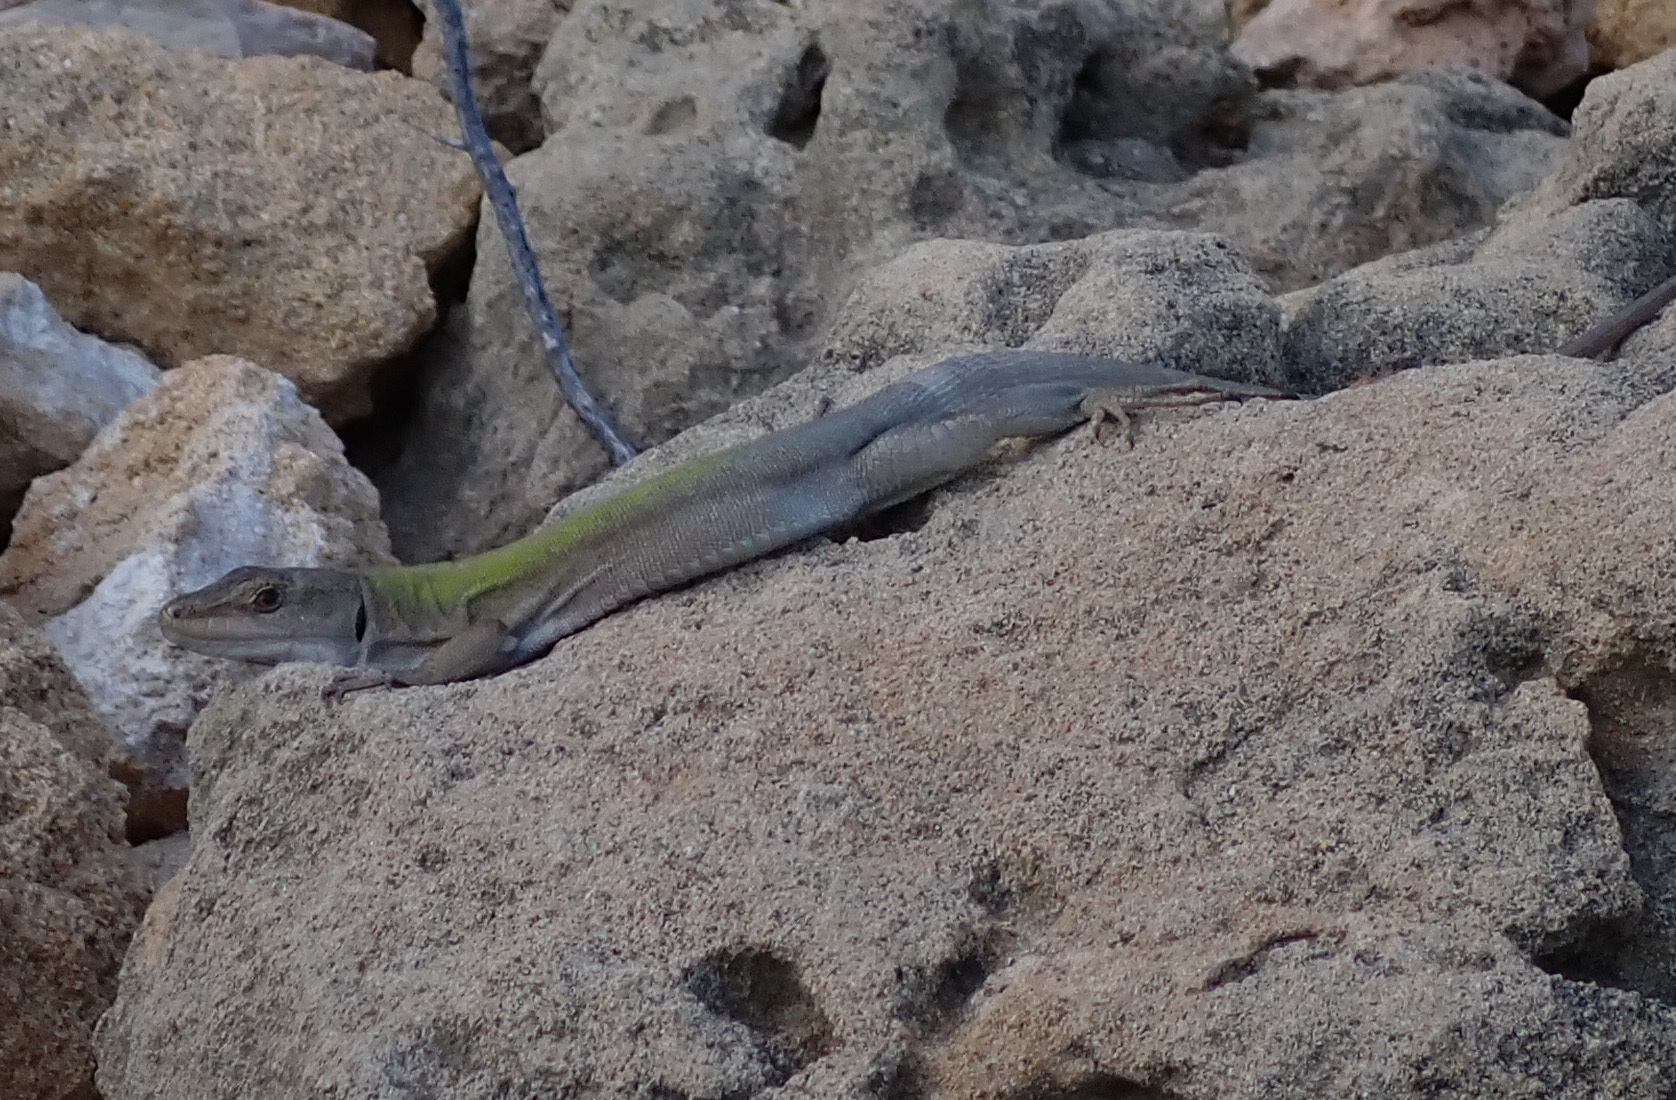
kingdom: Animalia
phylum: Chordata
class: Squamata
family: Lacertidae
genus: Podarcis
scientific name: Podarcis siculus
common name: Italian wall lizard
